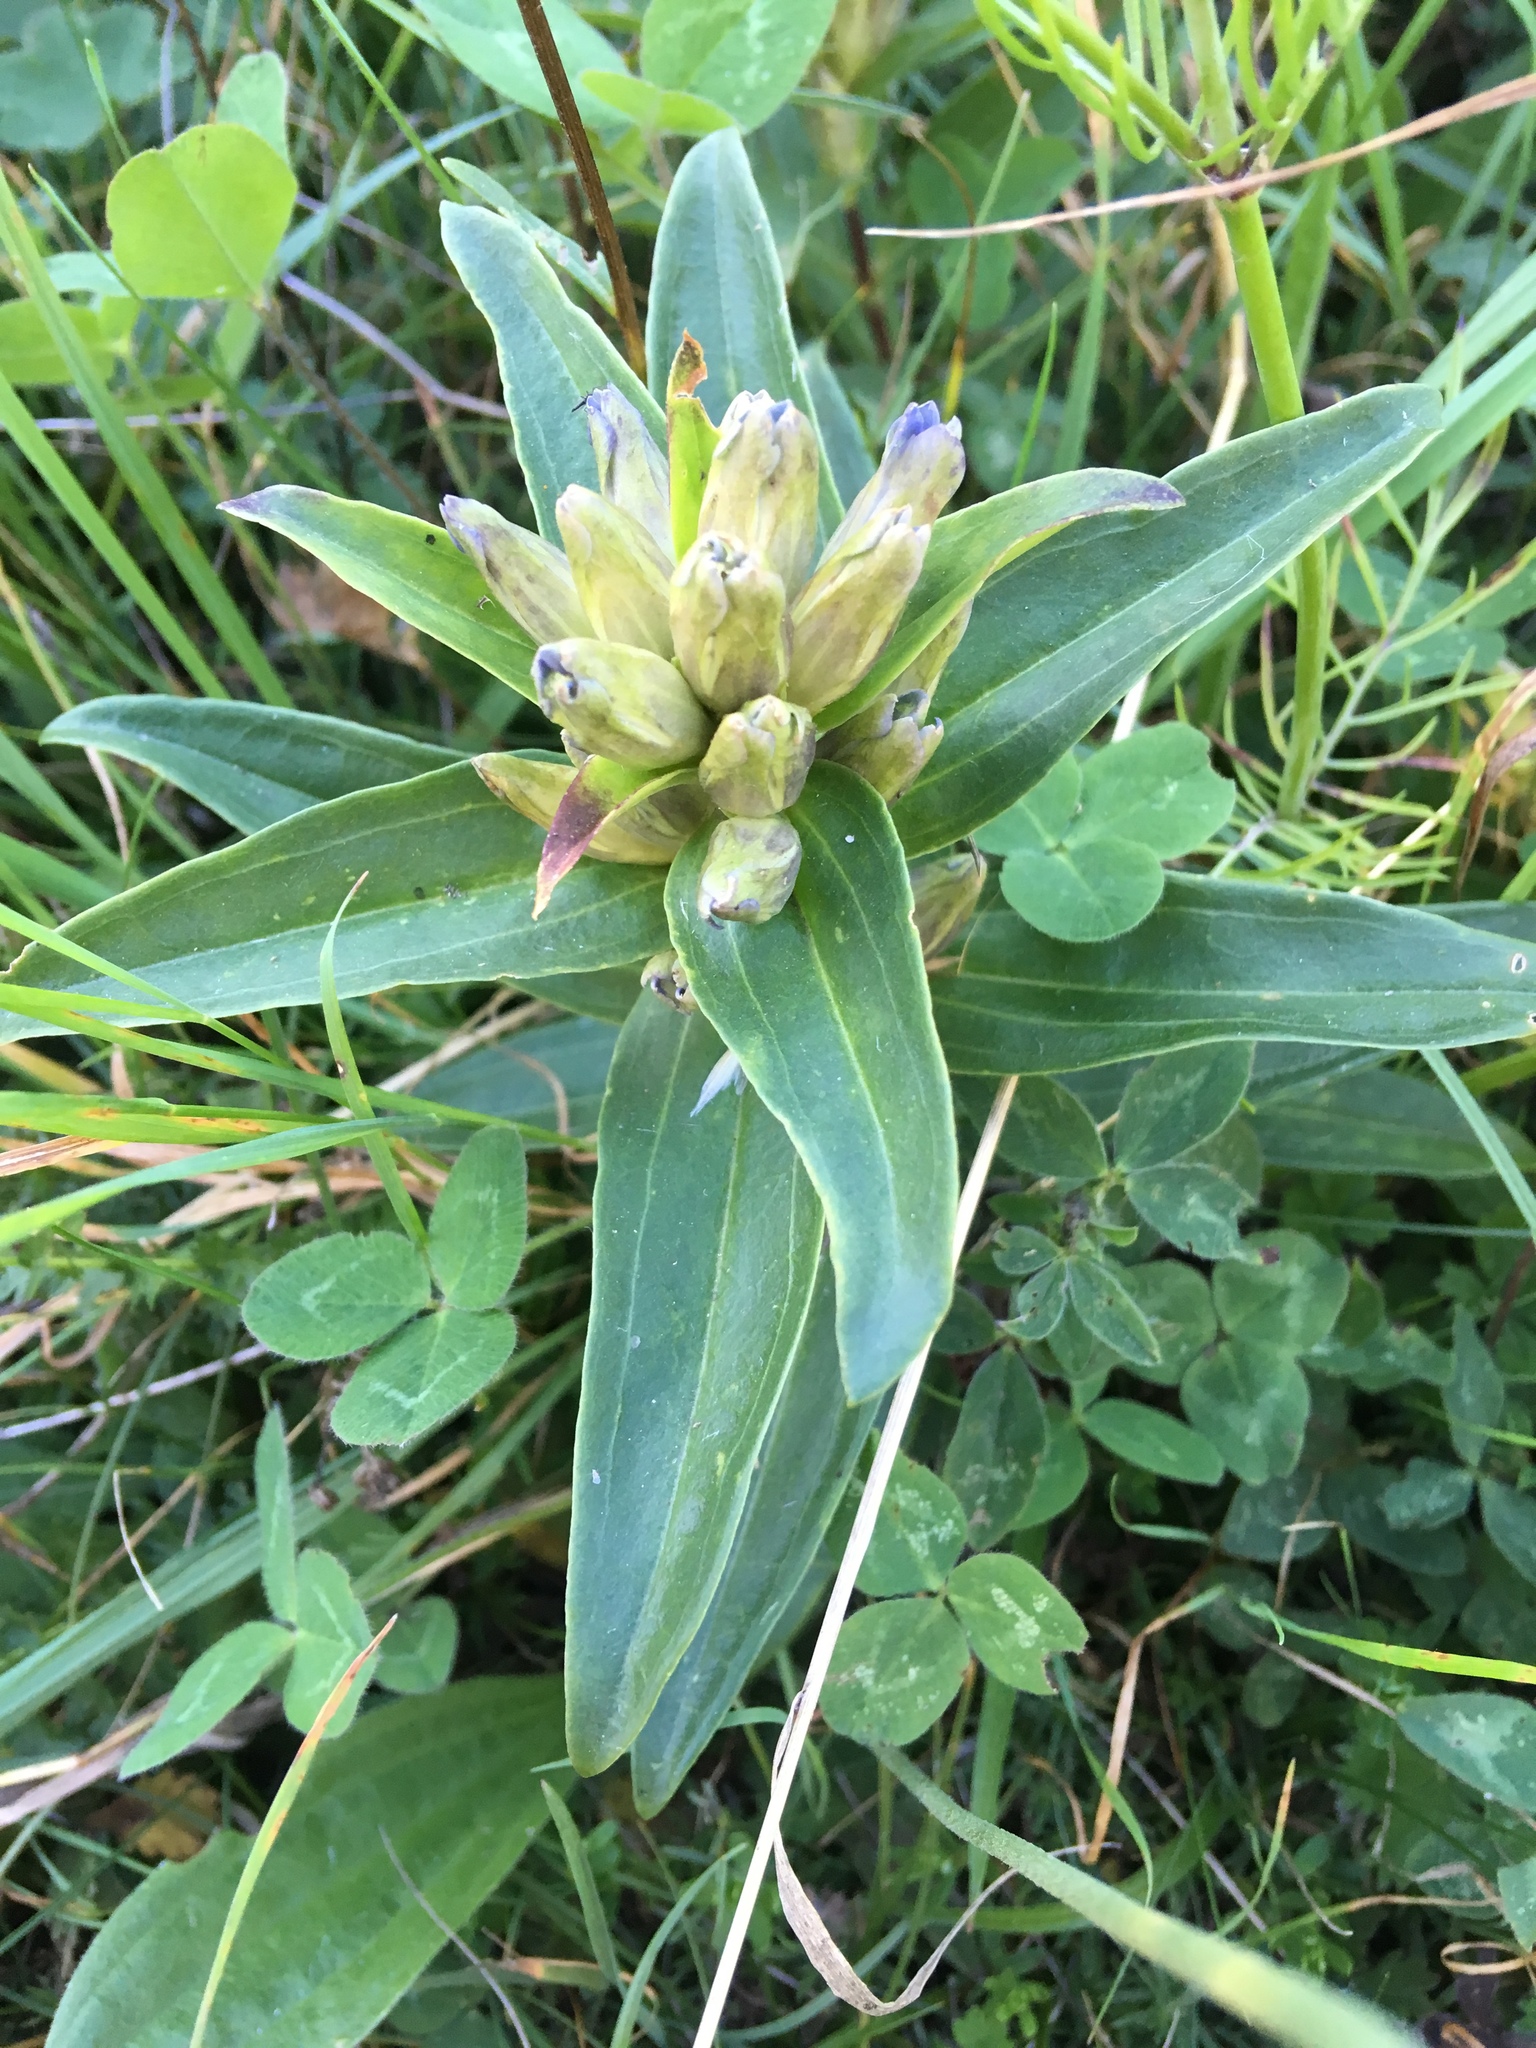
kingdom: Plantae
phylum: Tracheophyta
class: Magnoliopsida
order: Gentianales
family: Gentianaceae
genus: Gentiana
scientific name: Gentiana cruciata
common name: Cross gentian
